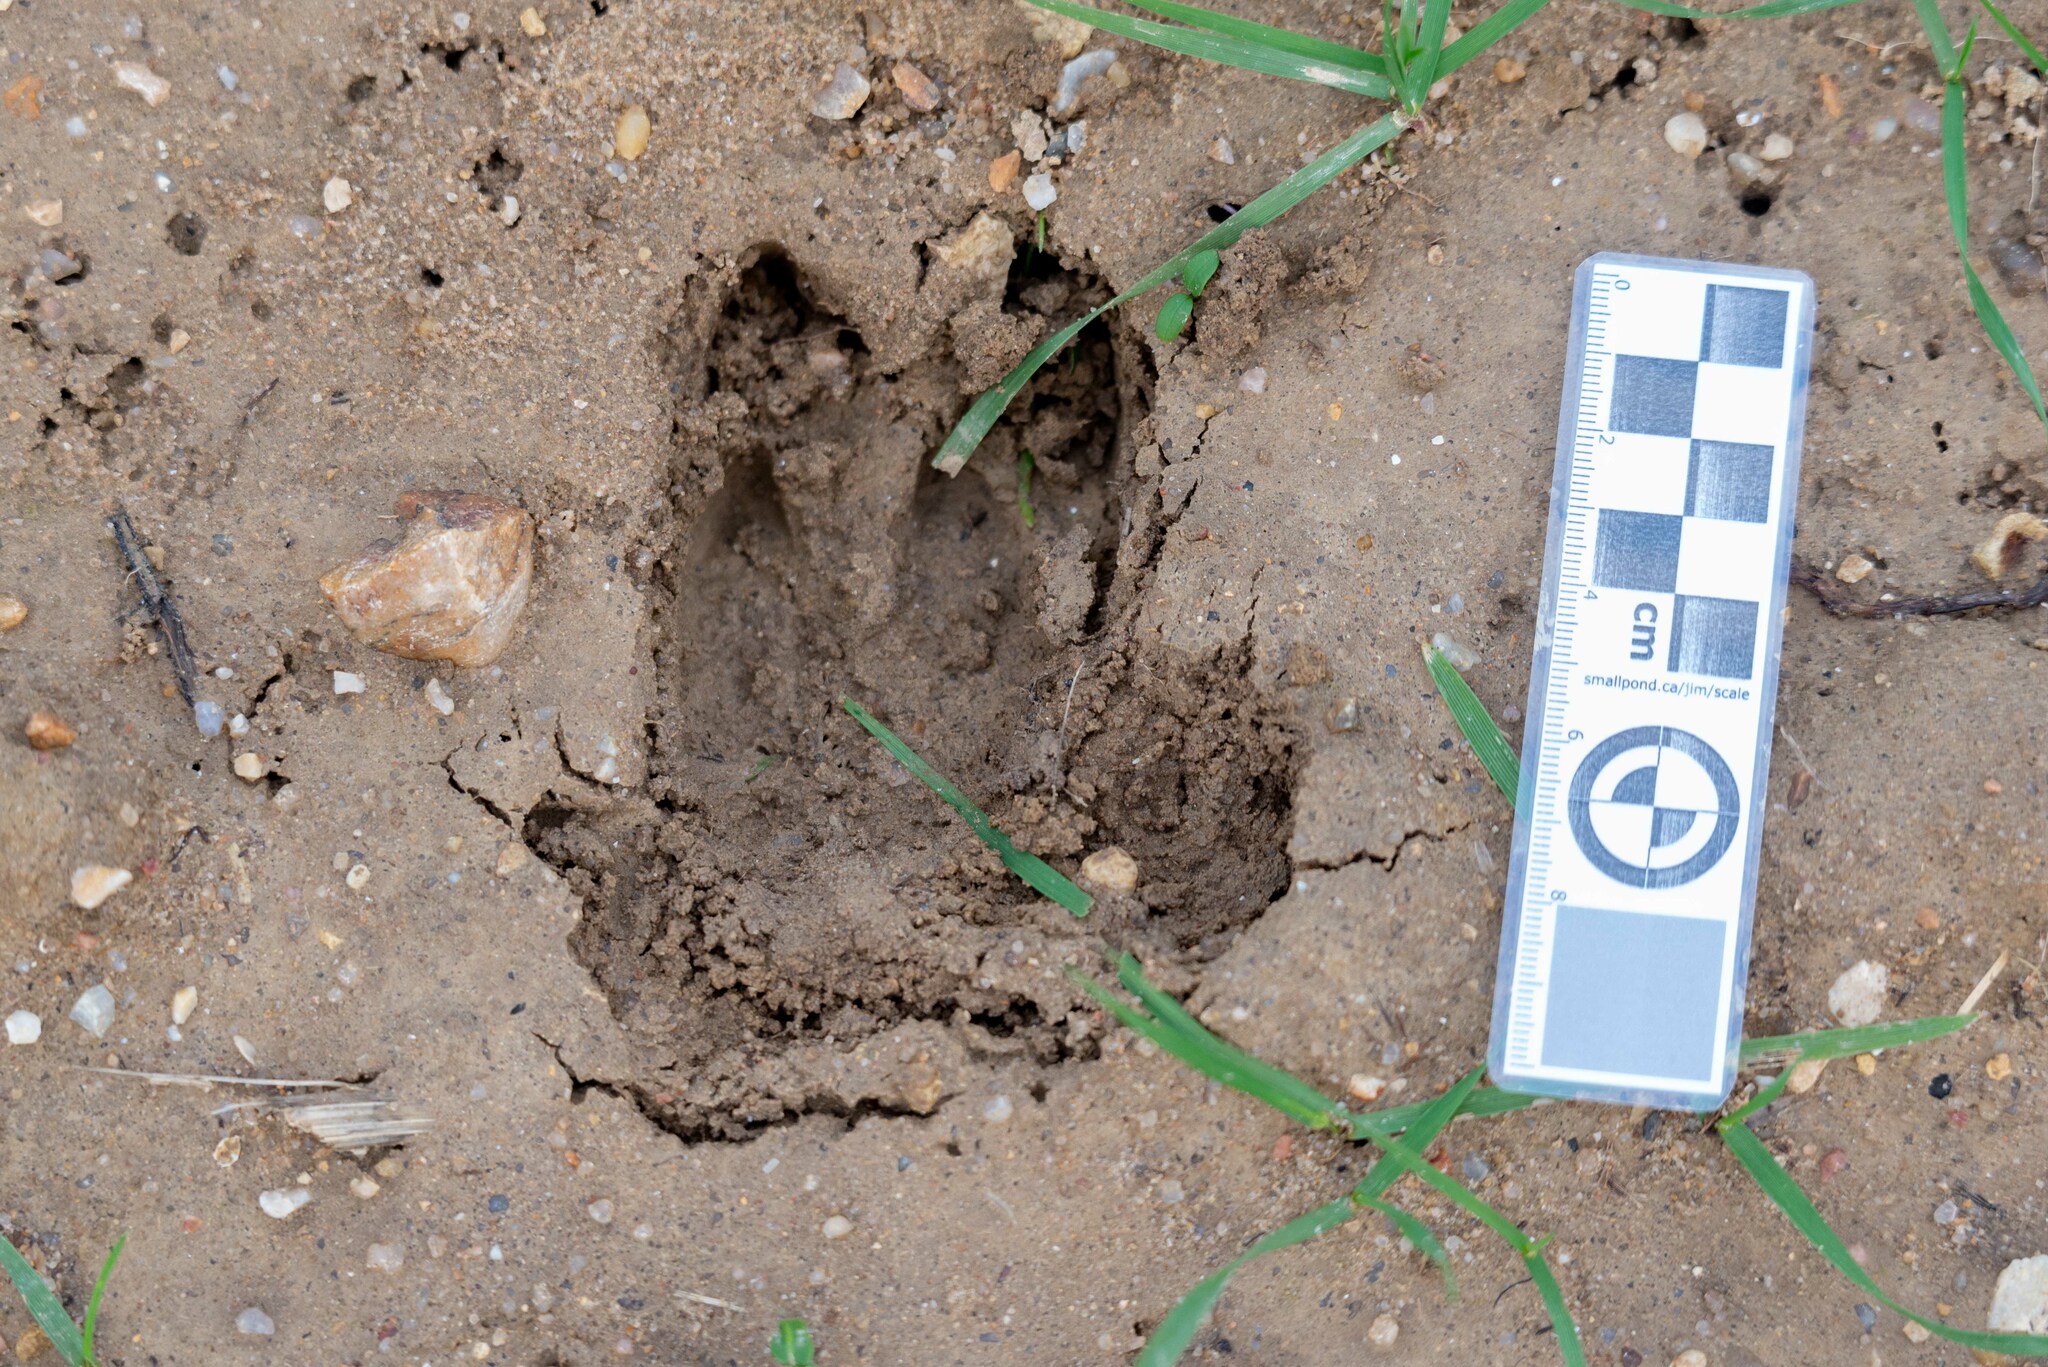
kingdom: Animalia
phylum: Chordata
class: Mammalia
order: Artiodactyla
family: Suidae
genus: Sus
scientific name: Sus scrofa
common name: Wild boar
